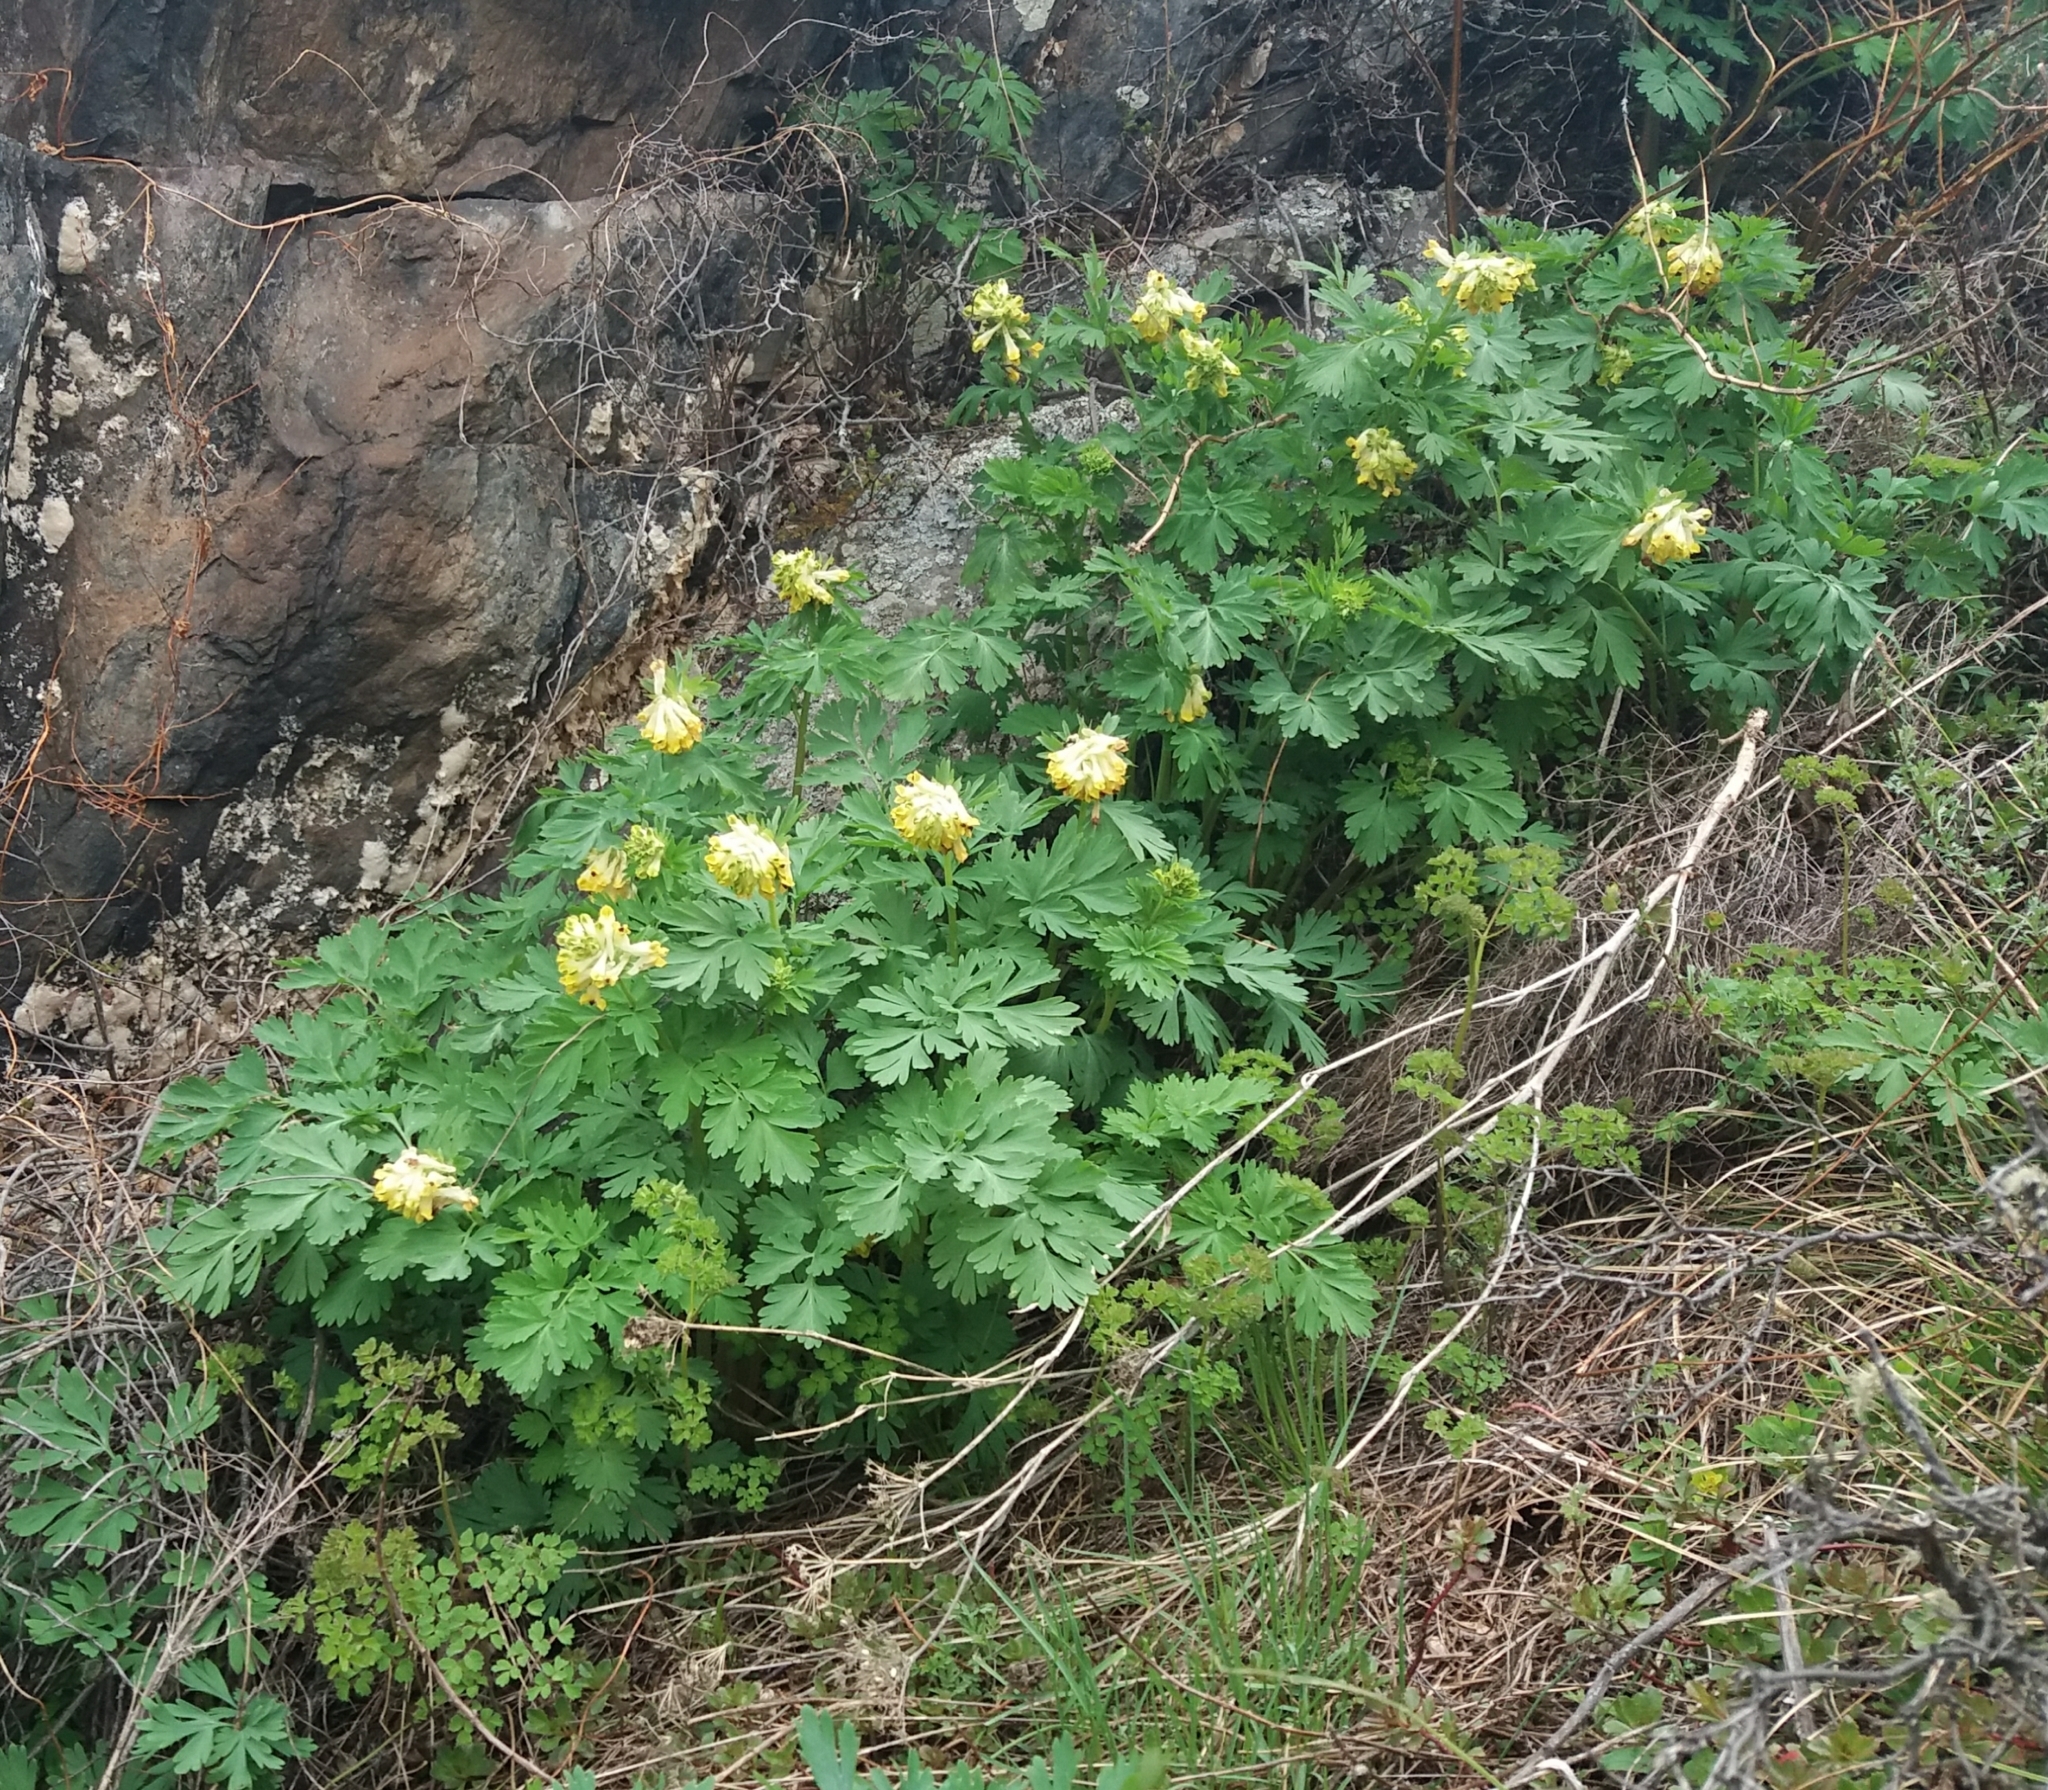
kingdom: Plantae
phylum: Tracheophyta
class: Magnoliopsida
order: Ranunculales
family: Papaveraceae
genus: Corydalis
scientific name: Corydalis nobilis
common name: Siberian corydalis
